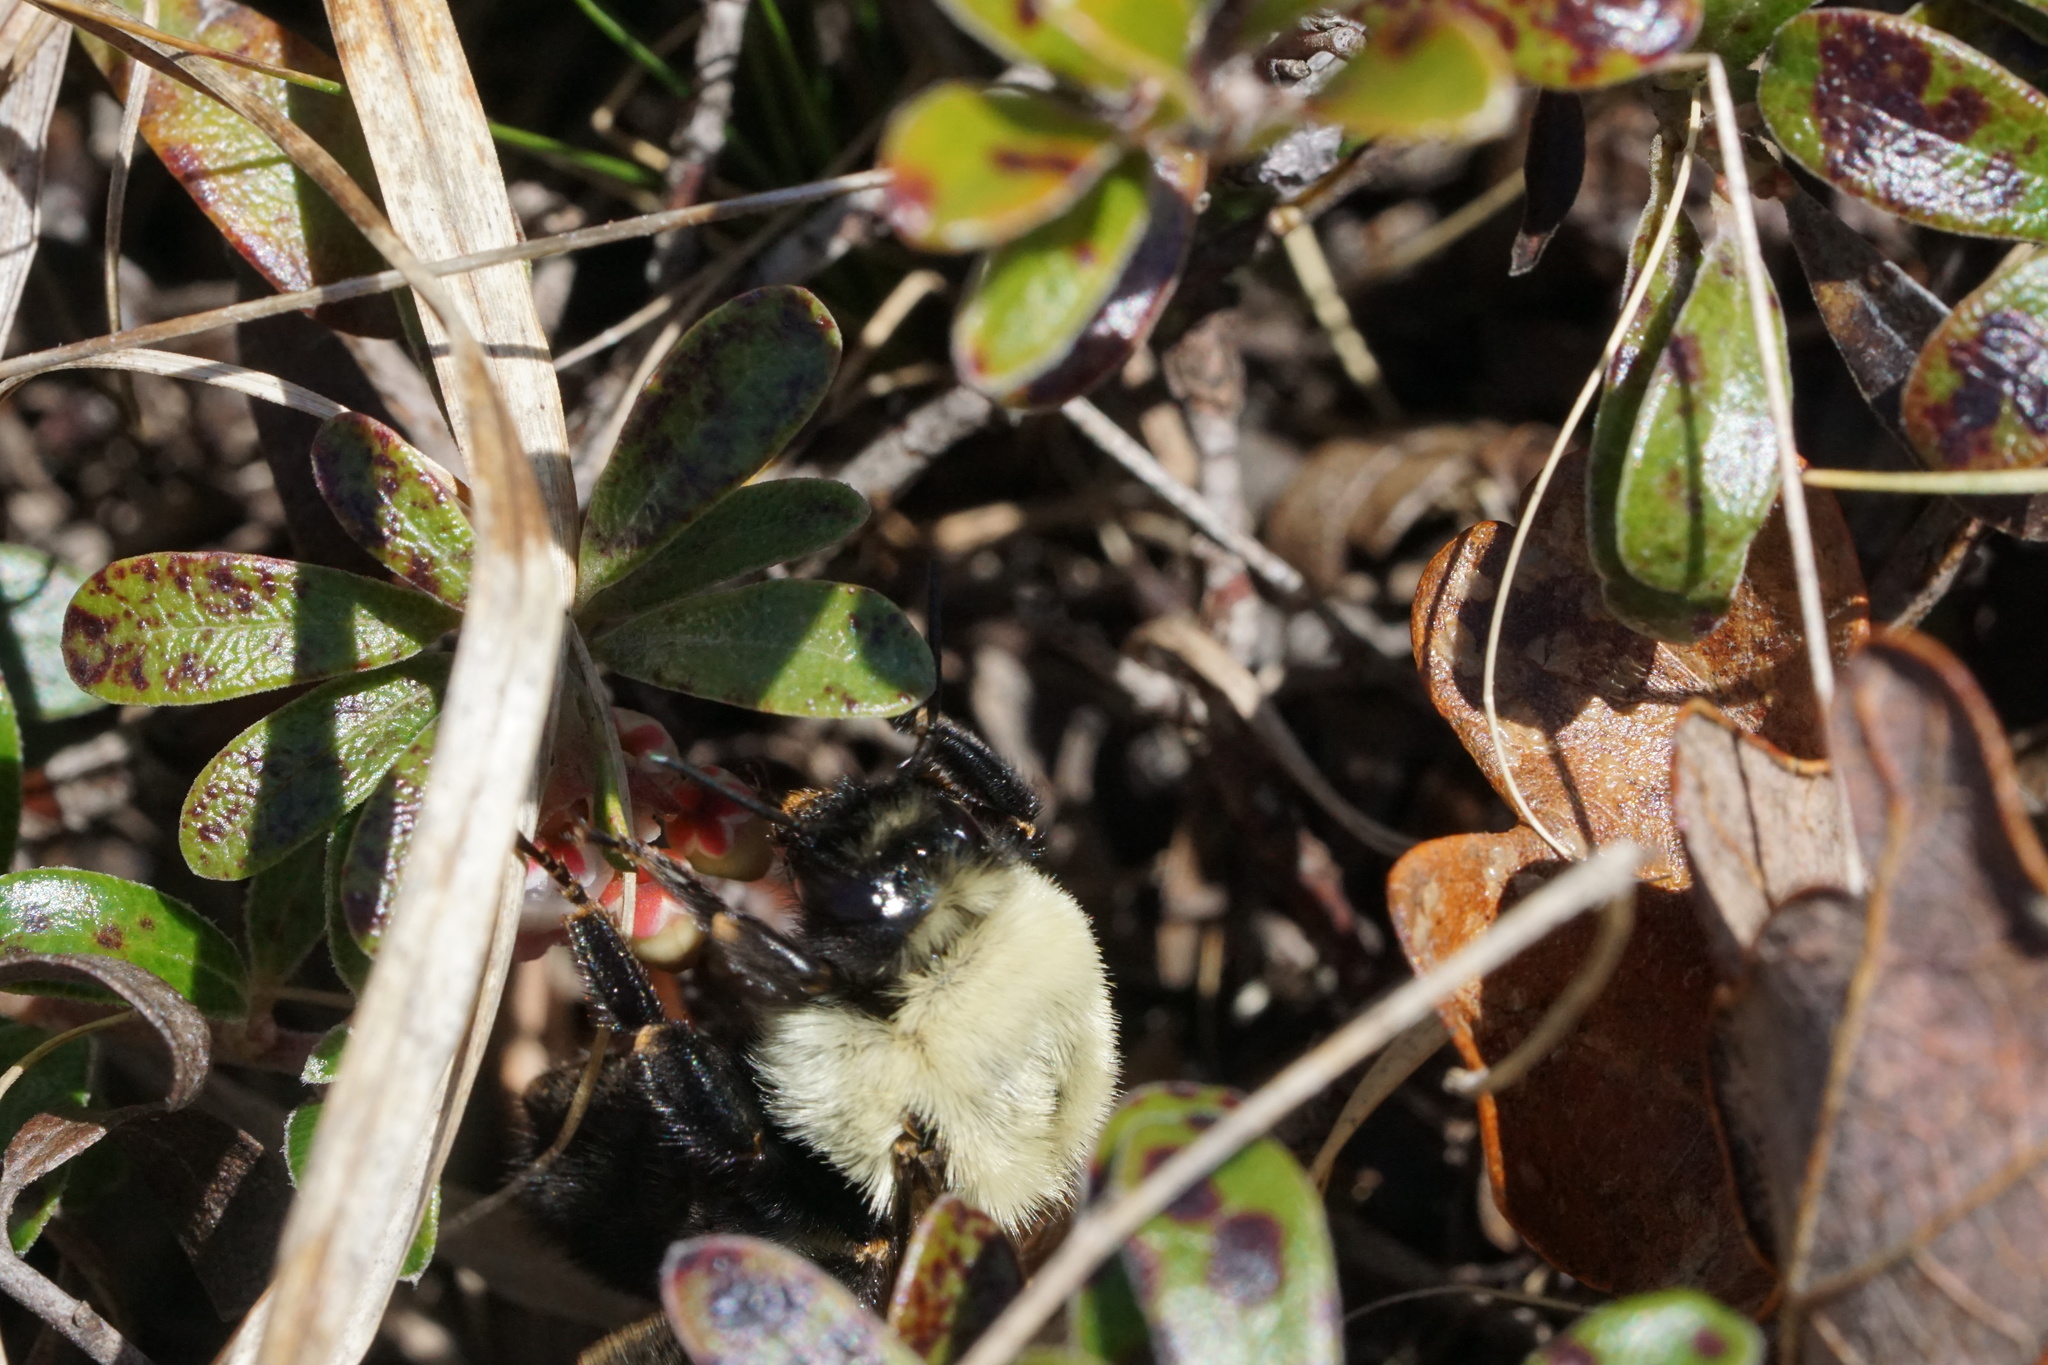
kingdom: Animalia
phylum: Arthropoda
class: Insecta
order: Hymenoptera
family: Apidae
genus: Bombus
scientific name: Bombus impatiens
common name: Common eastern bumble bee
